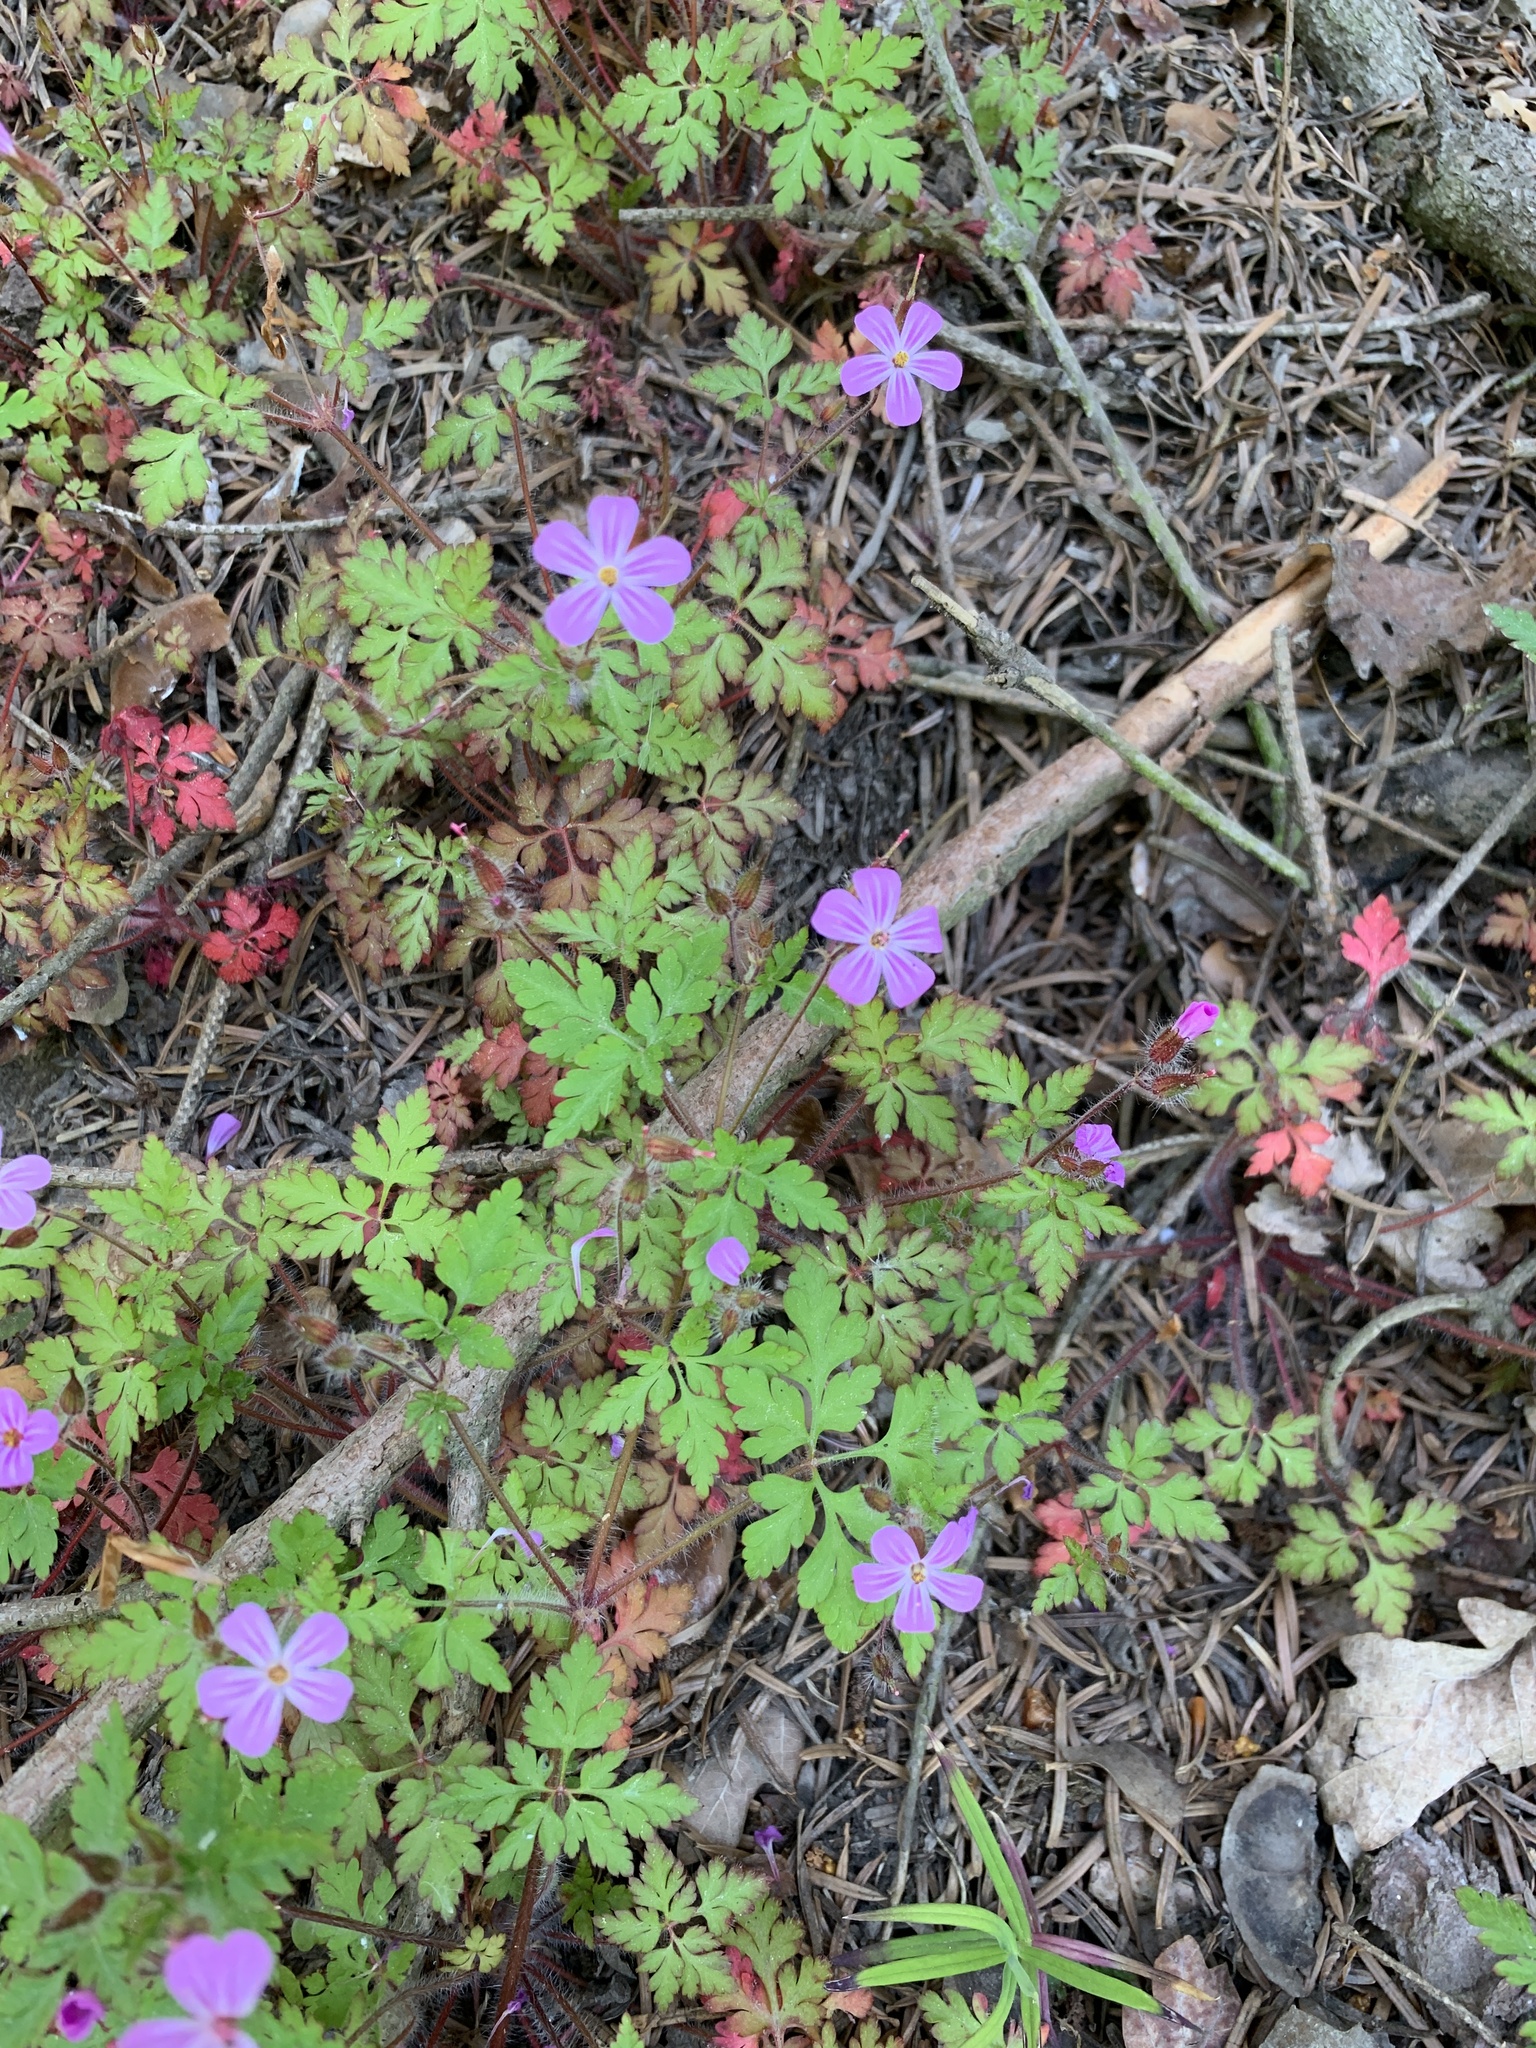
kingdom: Plantae
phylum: Tracheophyta
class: Magnoliopsida
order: Geraniales
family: Geraniaceae
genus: Geranium
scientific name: Geranium robertianum
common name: Herb-robert
